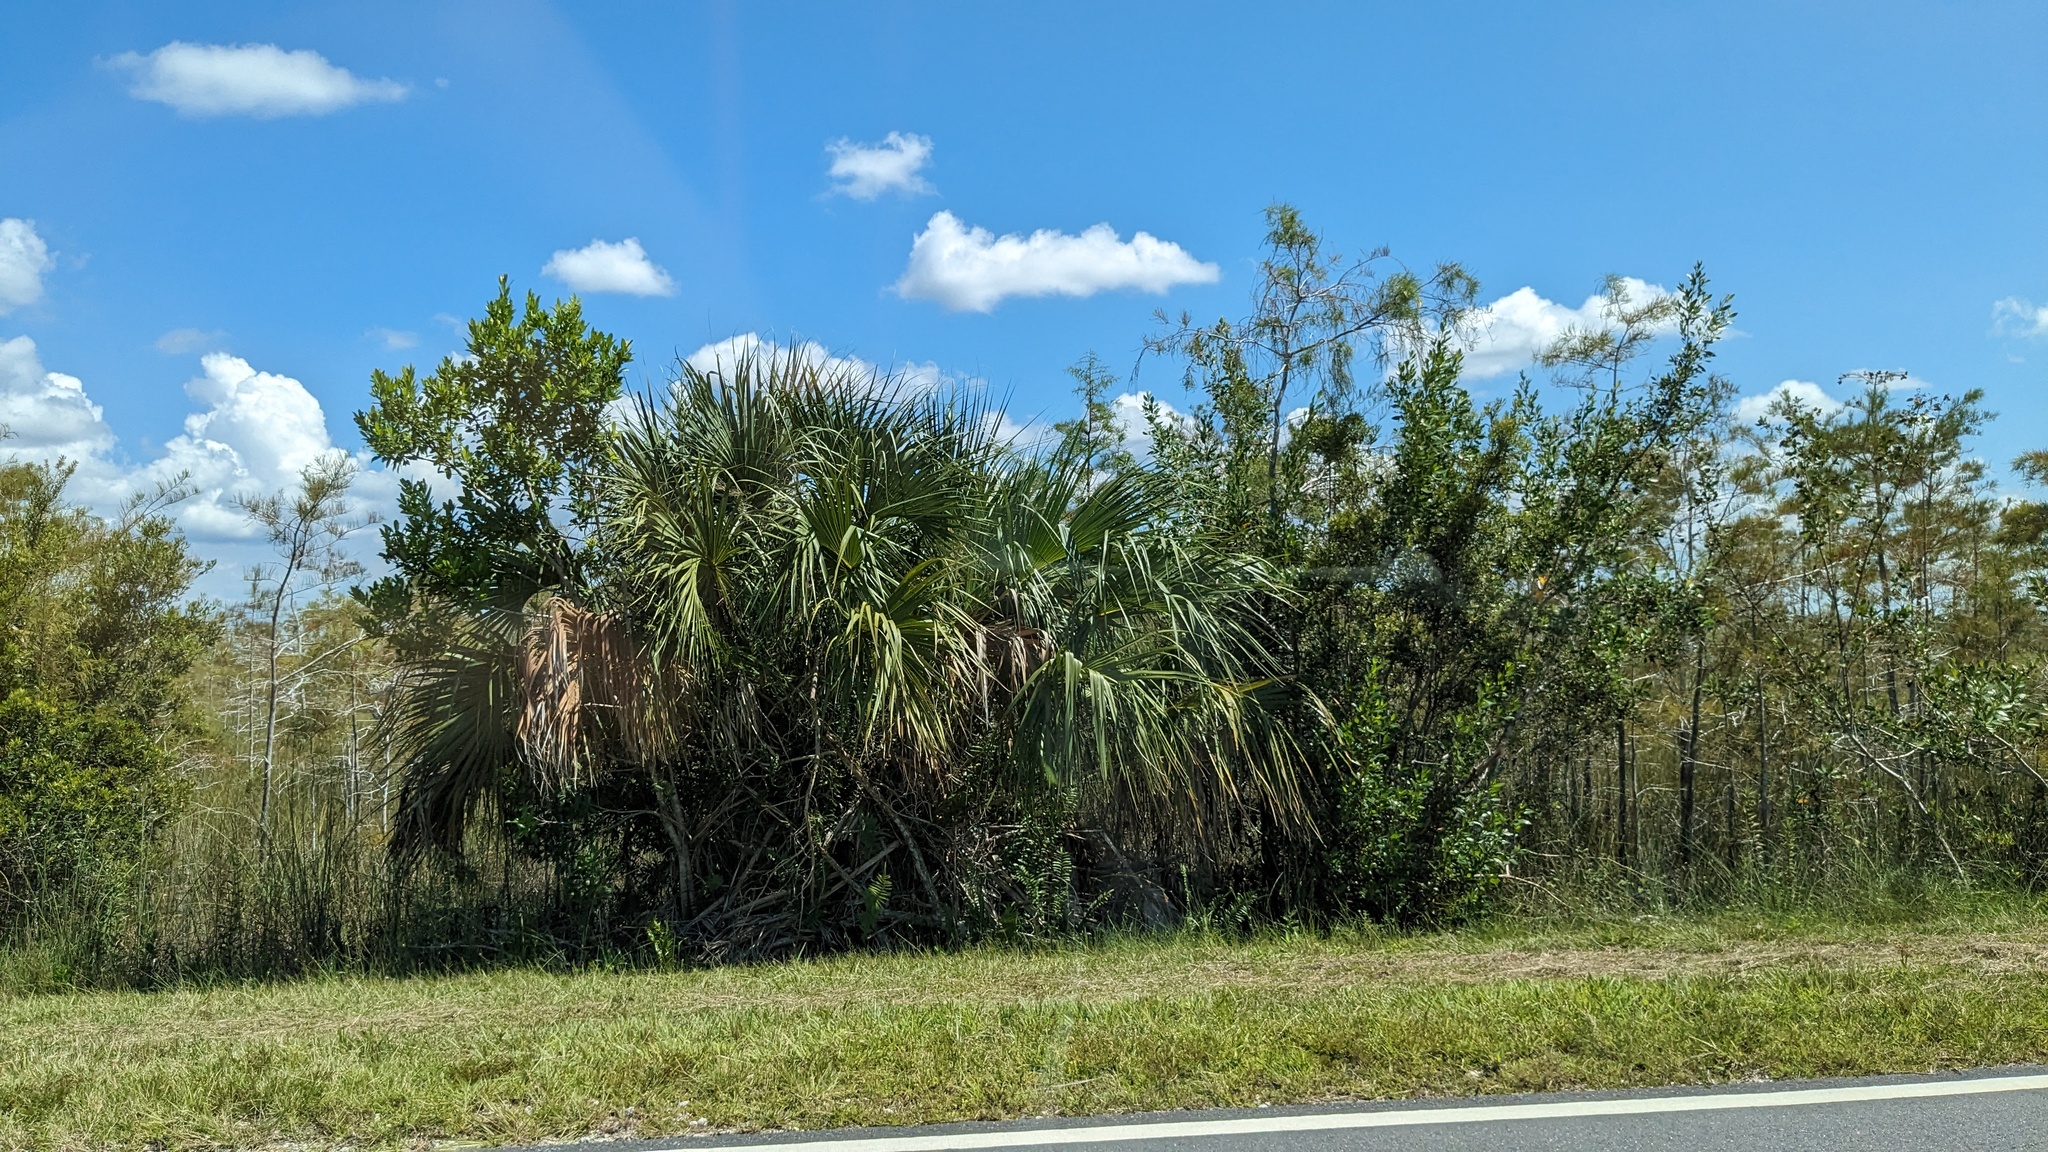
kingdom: Plantae
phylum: Tracheophyta
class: Liliopsida
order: Arecales
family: Arecaceae
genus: Sabal
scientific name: Sabal palmetto
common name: Blue palmetto
